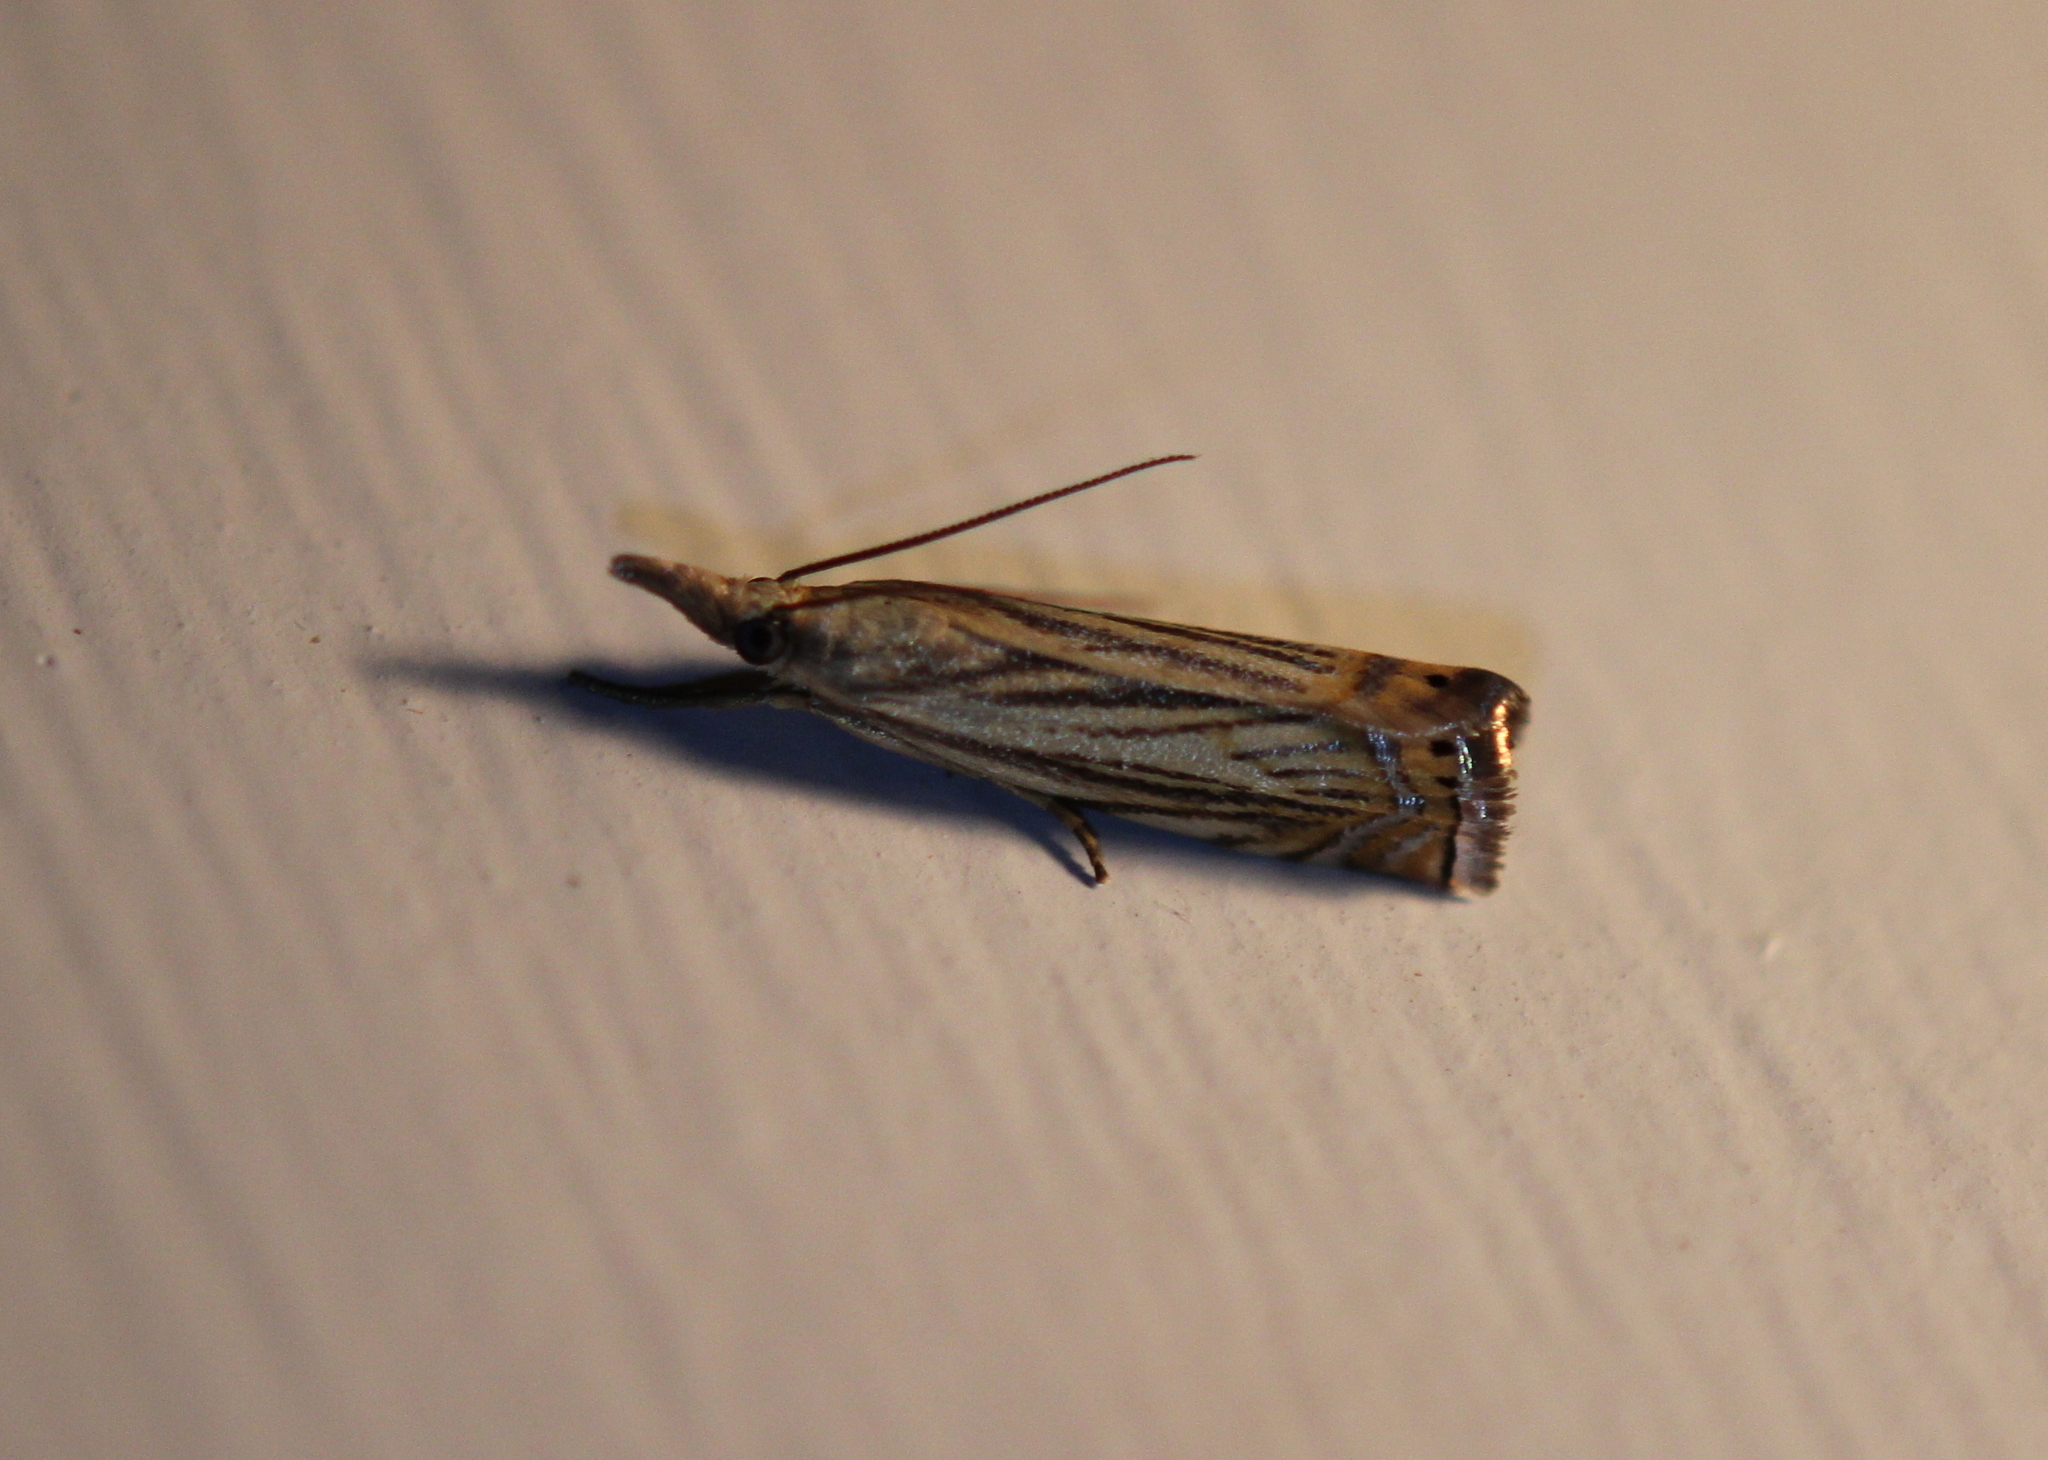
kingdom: Animalia
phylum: Arthropoda
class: Insecta
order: Lepidoptera
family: Crambidae
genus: Chrysoteuchia
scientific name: Chrysoteuchia topiarius
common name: Topiary grass-veneer
